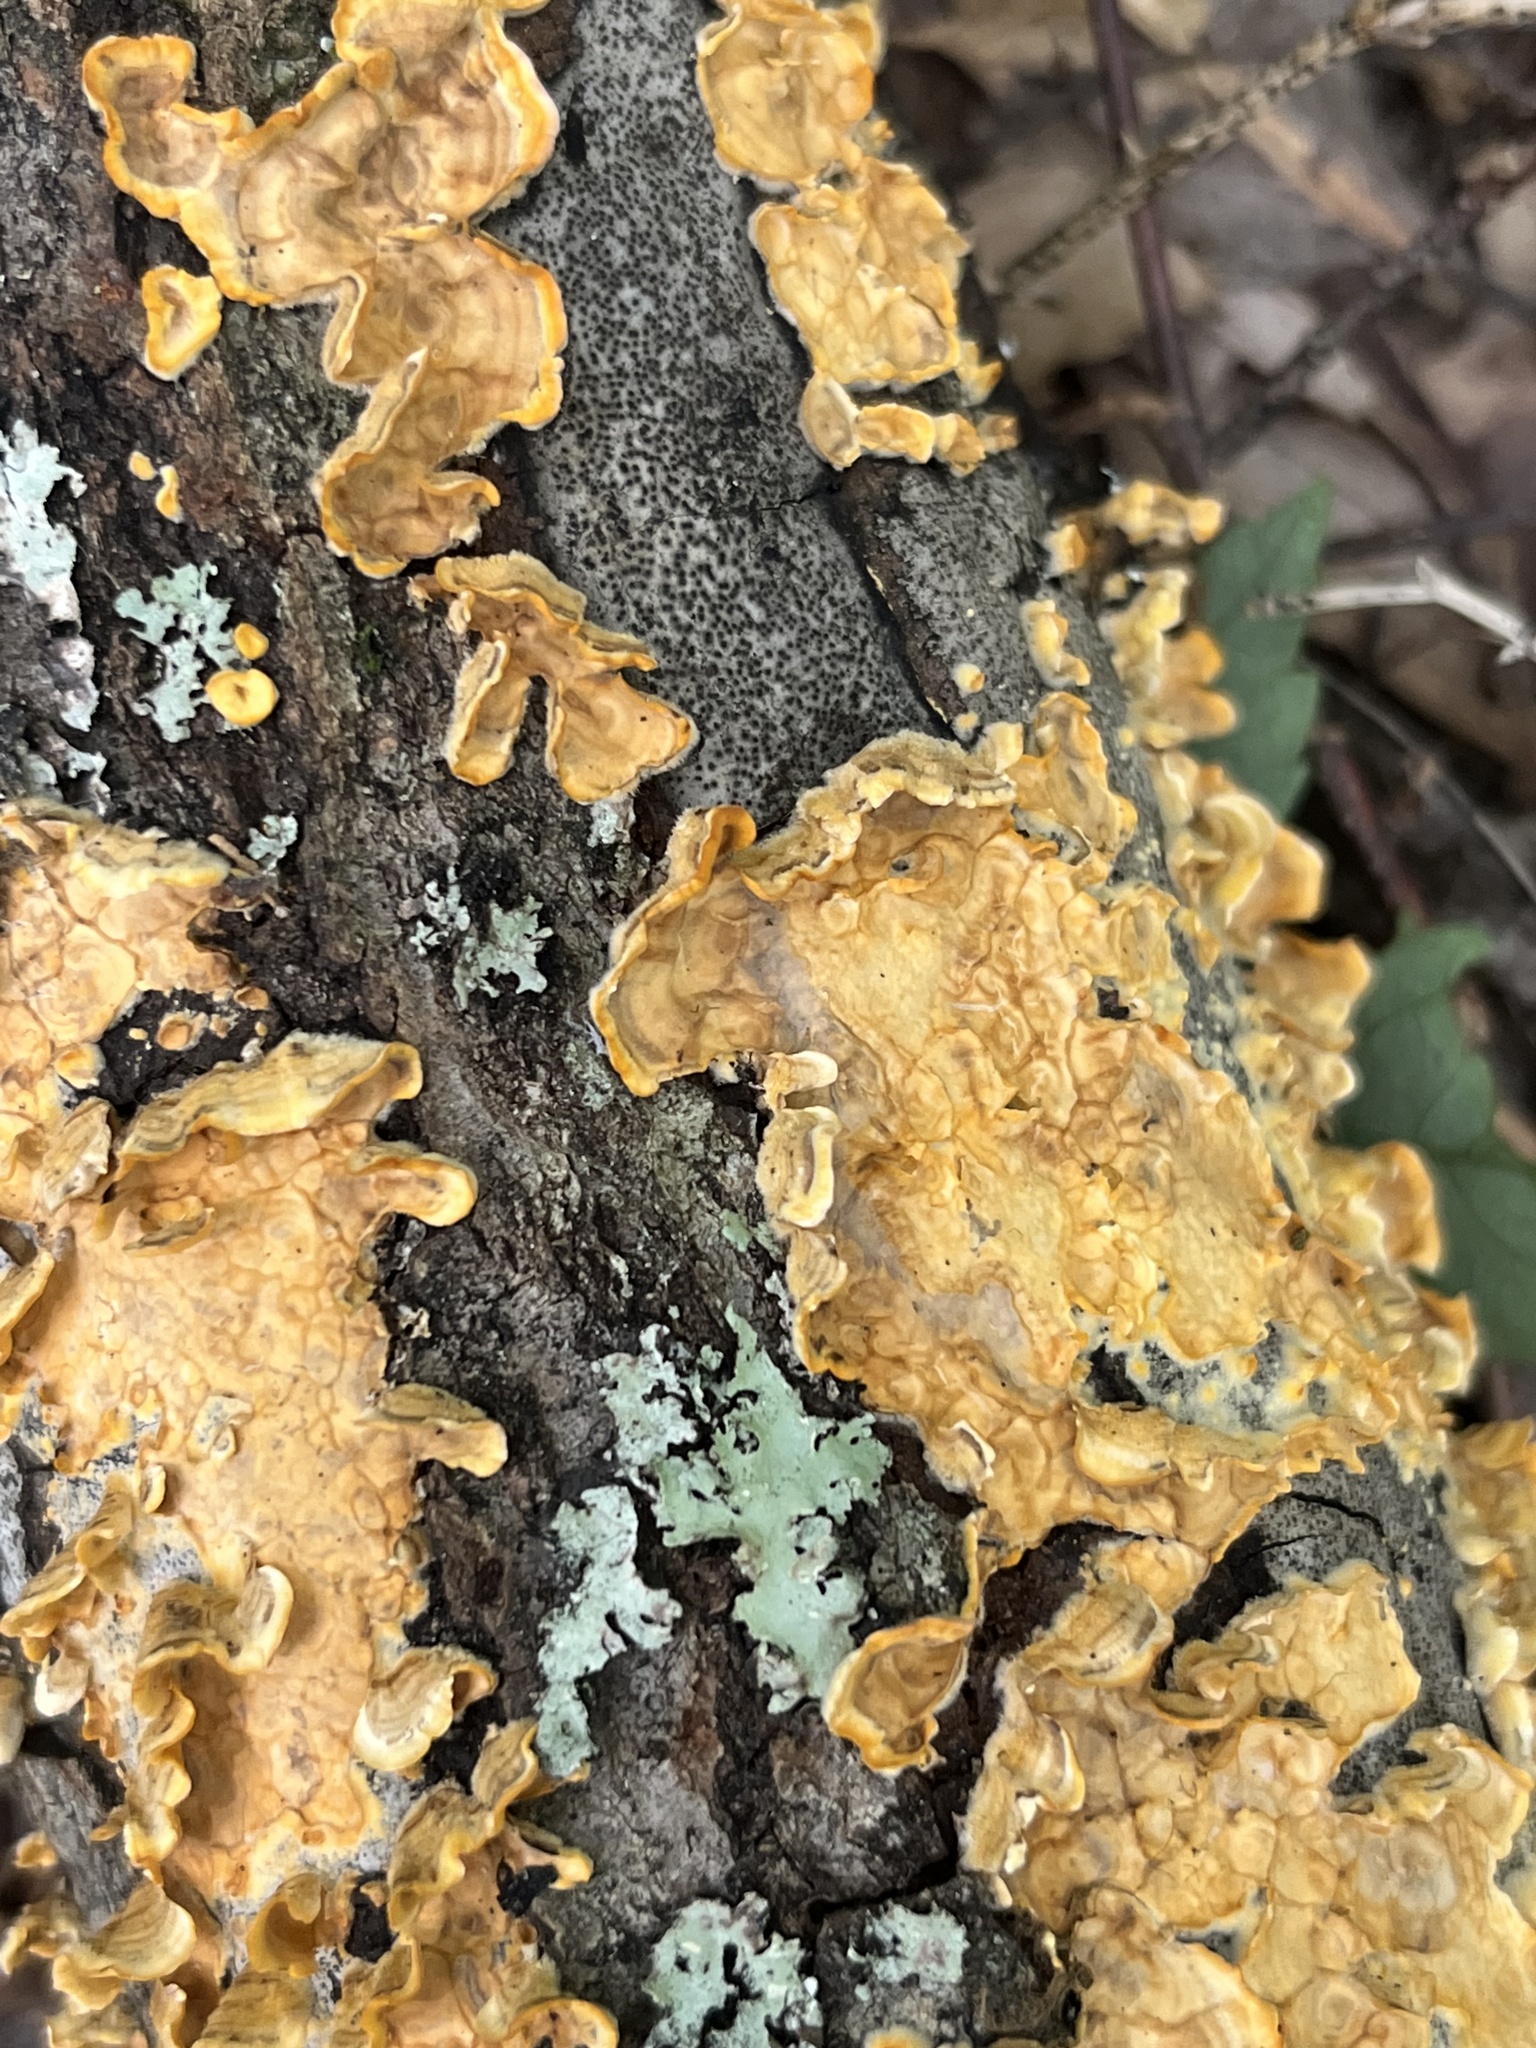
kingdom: Fungi
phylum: Basidiomycota
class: Agaricomycetes
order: Russulales
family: Stereaceae
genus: Stereum
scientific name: Stereum complicatum
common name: Crowded parchment
